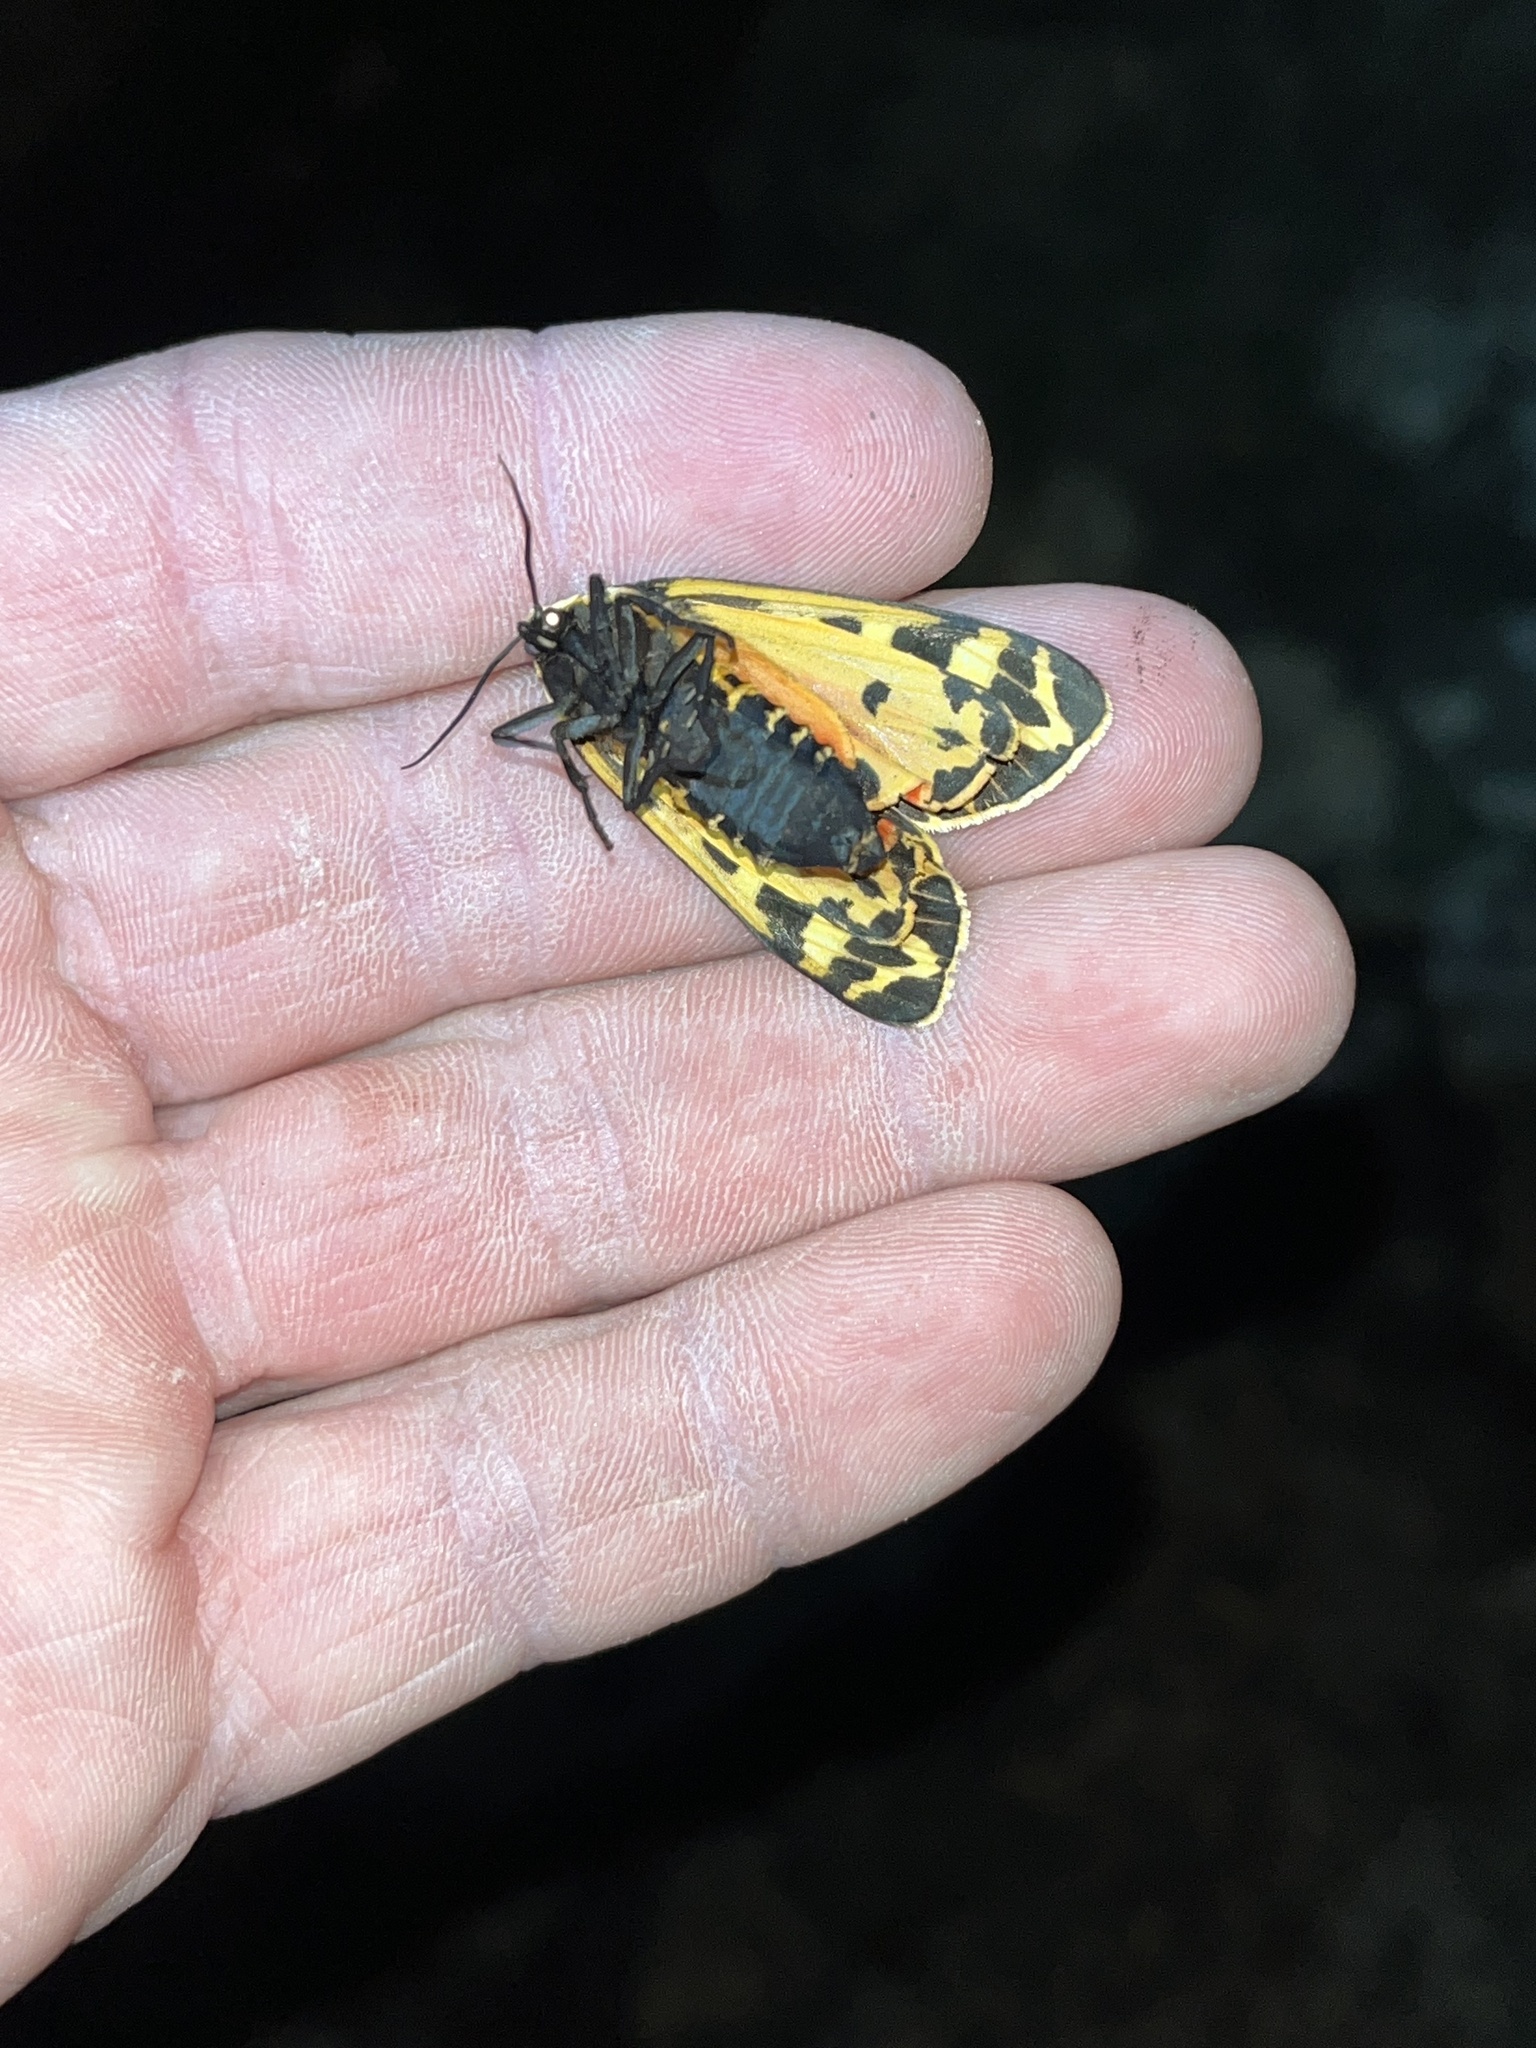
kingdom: Animalia
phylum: Arthropoda
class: Insecta
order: Lepidoptera
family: Erebidae
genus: Grammia
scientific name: Grammia parthenice
